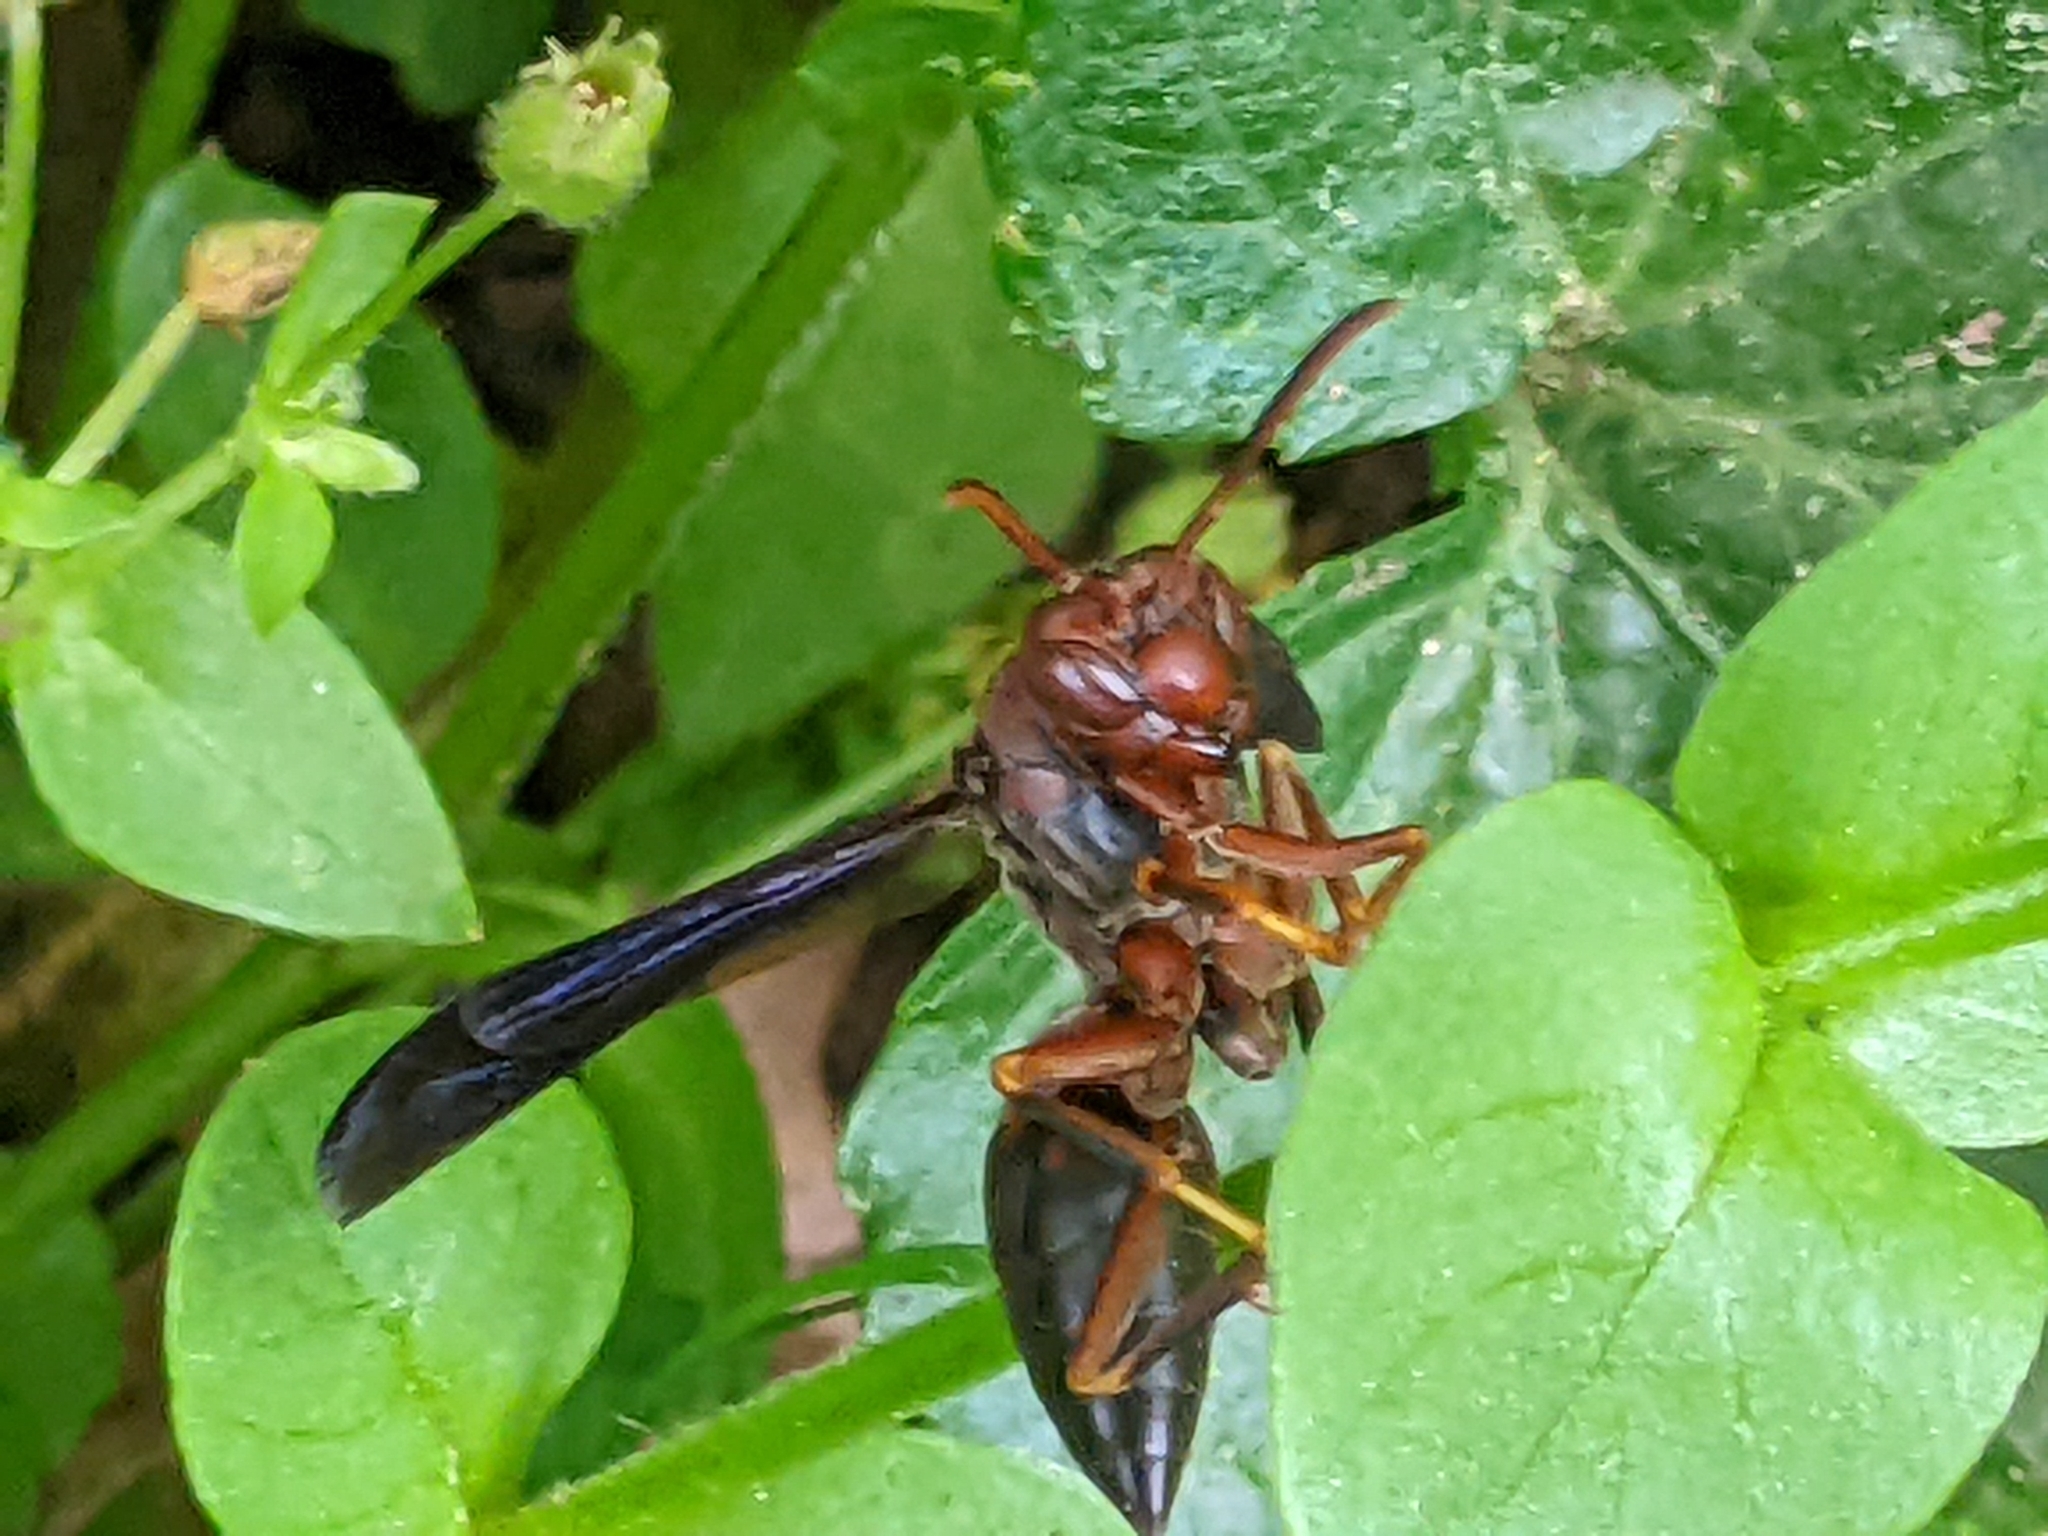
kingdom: Animalia
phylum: Arthropoda
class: Insecta
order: Hymenoptera
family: Vespidae
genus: Fuscopolistes
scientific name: Fuscopolistes
